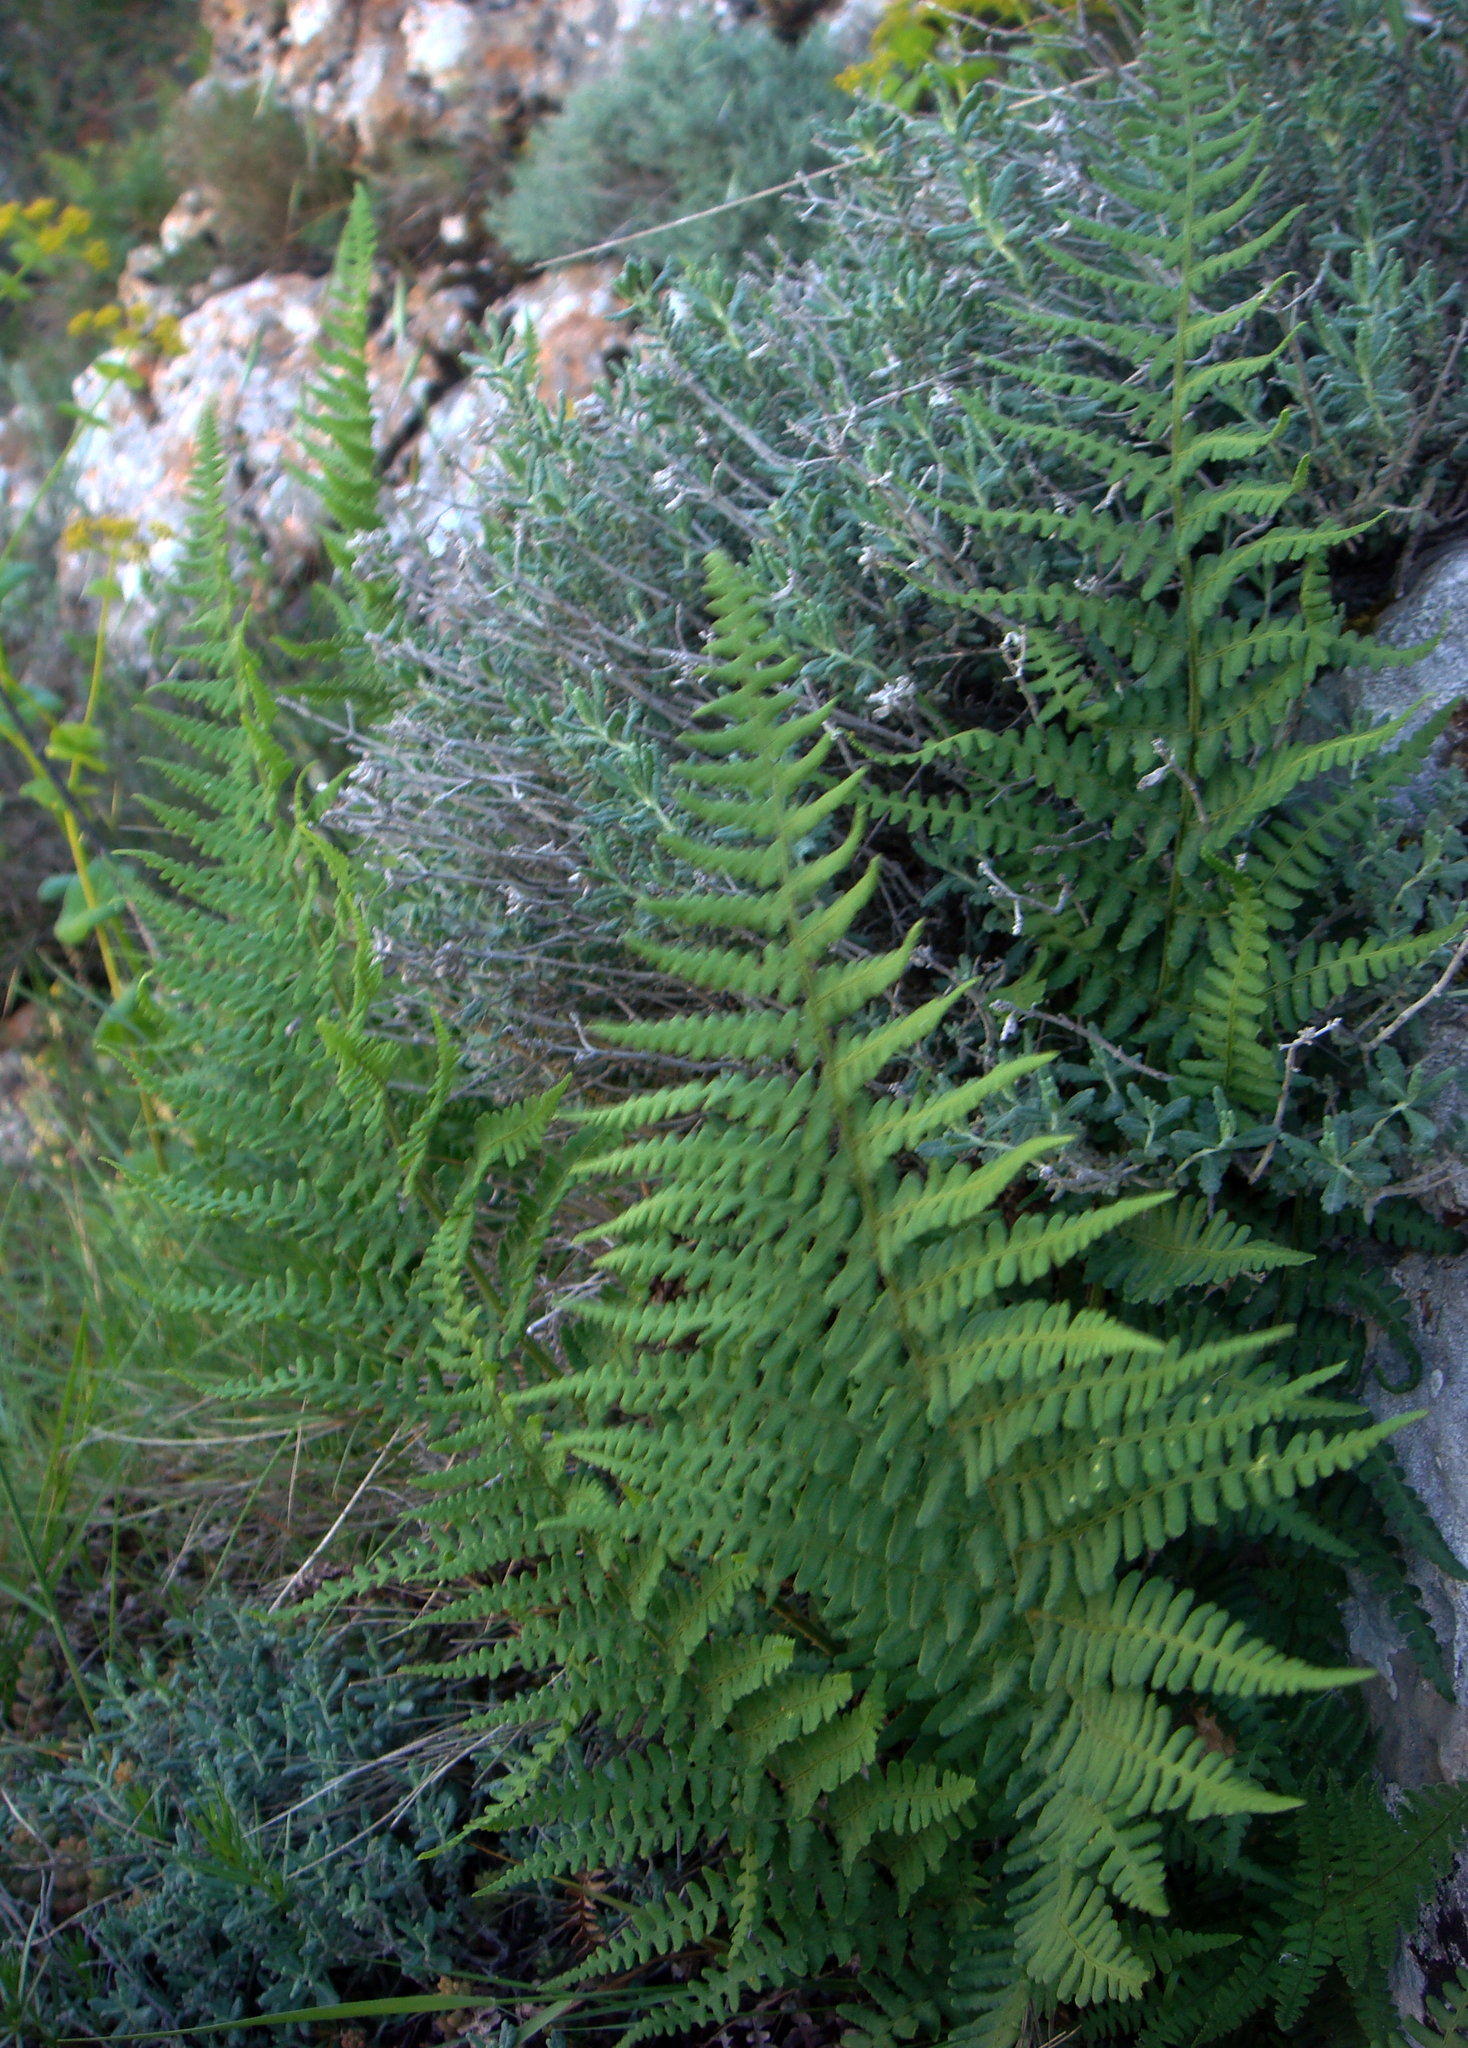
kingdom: Plantae
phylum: Tracheophyta
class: Polypodiopsida
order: Polypodiales
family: Dryopteridaceae
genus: Dryopteris
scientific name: Dryopteris pallida
